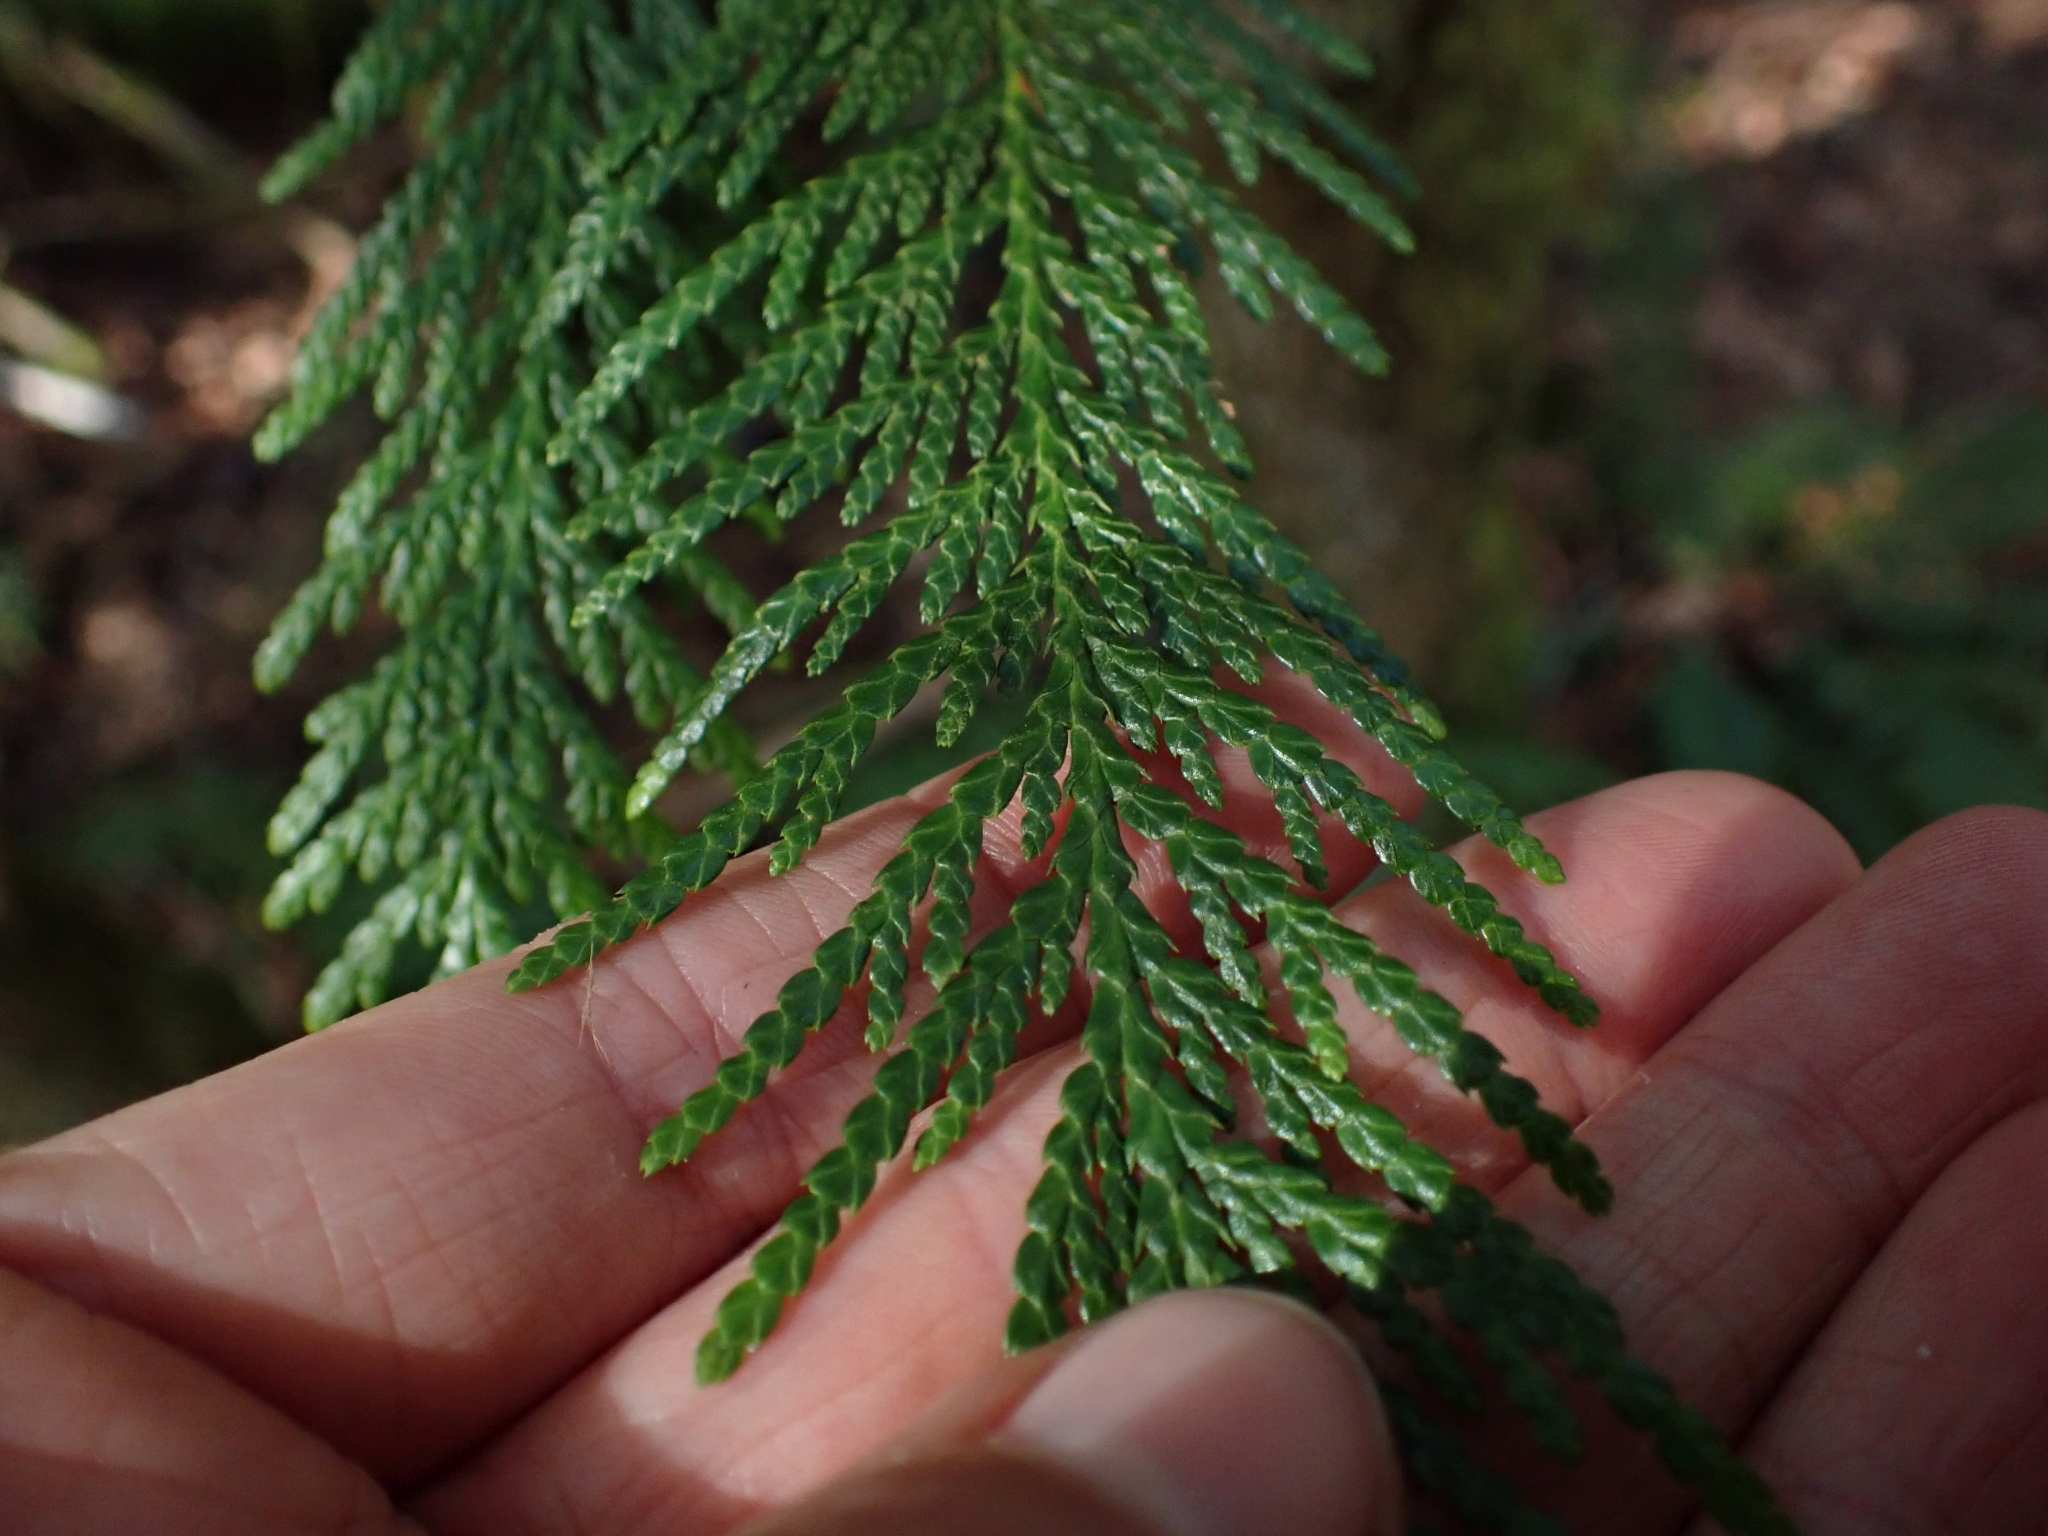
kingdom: Plantae
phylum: Tracheophyta
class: Pinopsida
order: Pinales
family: Cupressaceae
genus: Thuja
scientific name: Thuja plicata
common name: Western red-cedar
